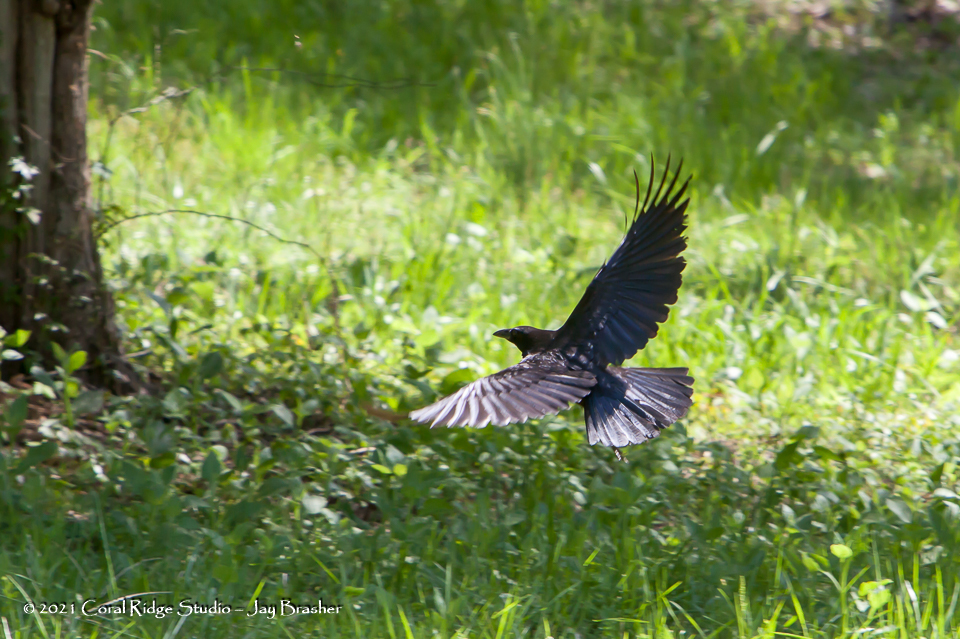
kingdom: Animalia
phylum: Chordata
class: Aves
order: Passeriformes
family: Corvidae
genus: Corvus
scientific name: Corvus brachyrhynchos
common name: American crow
